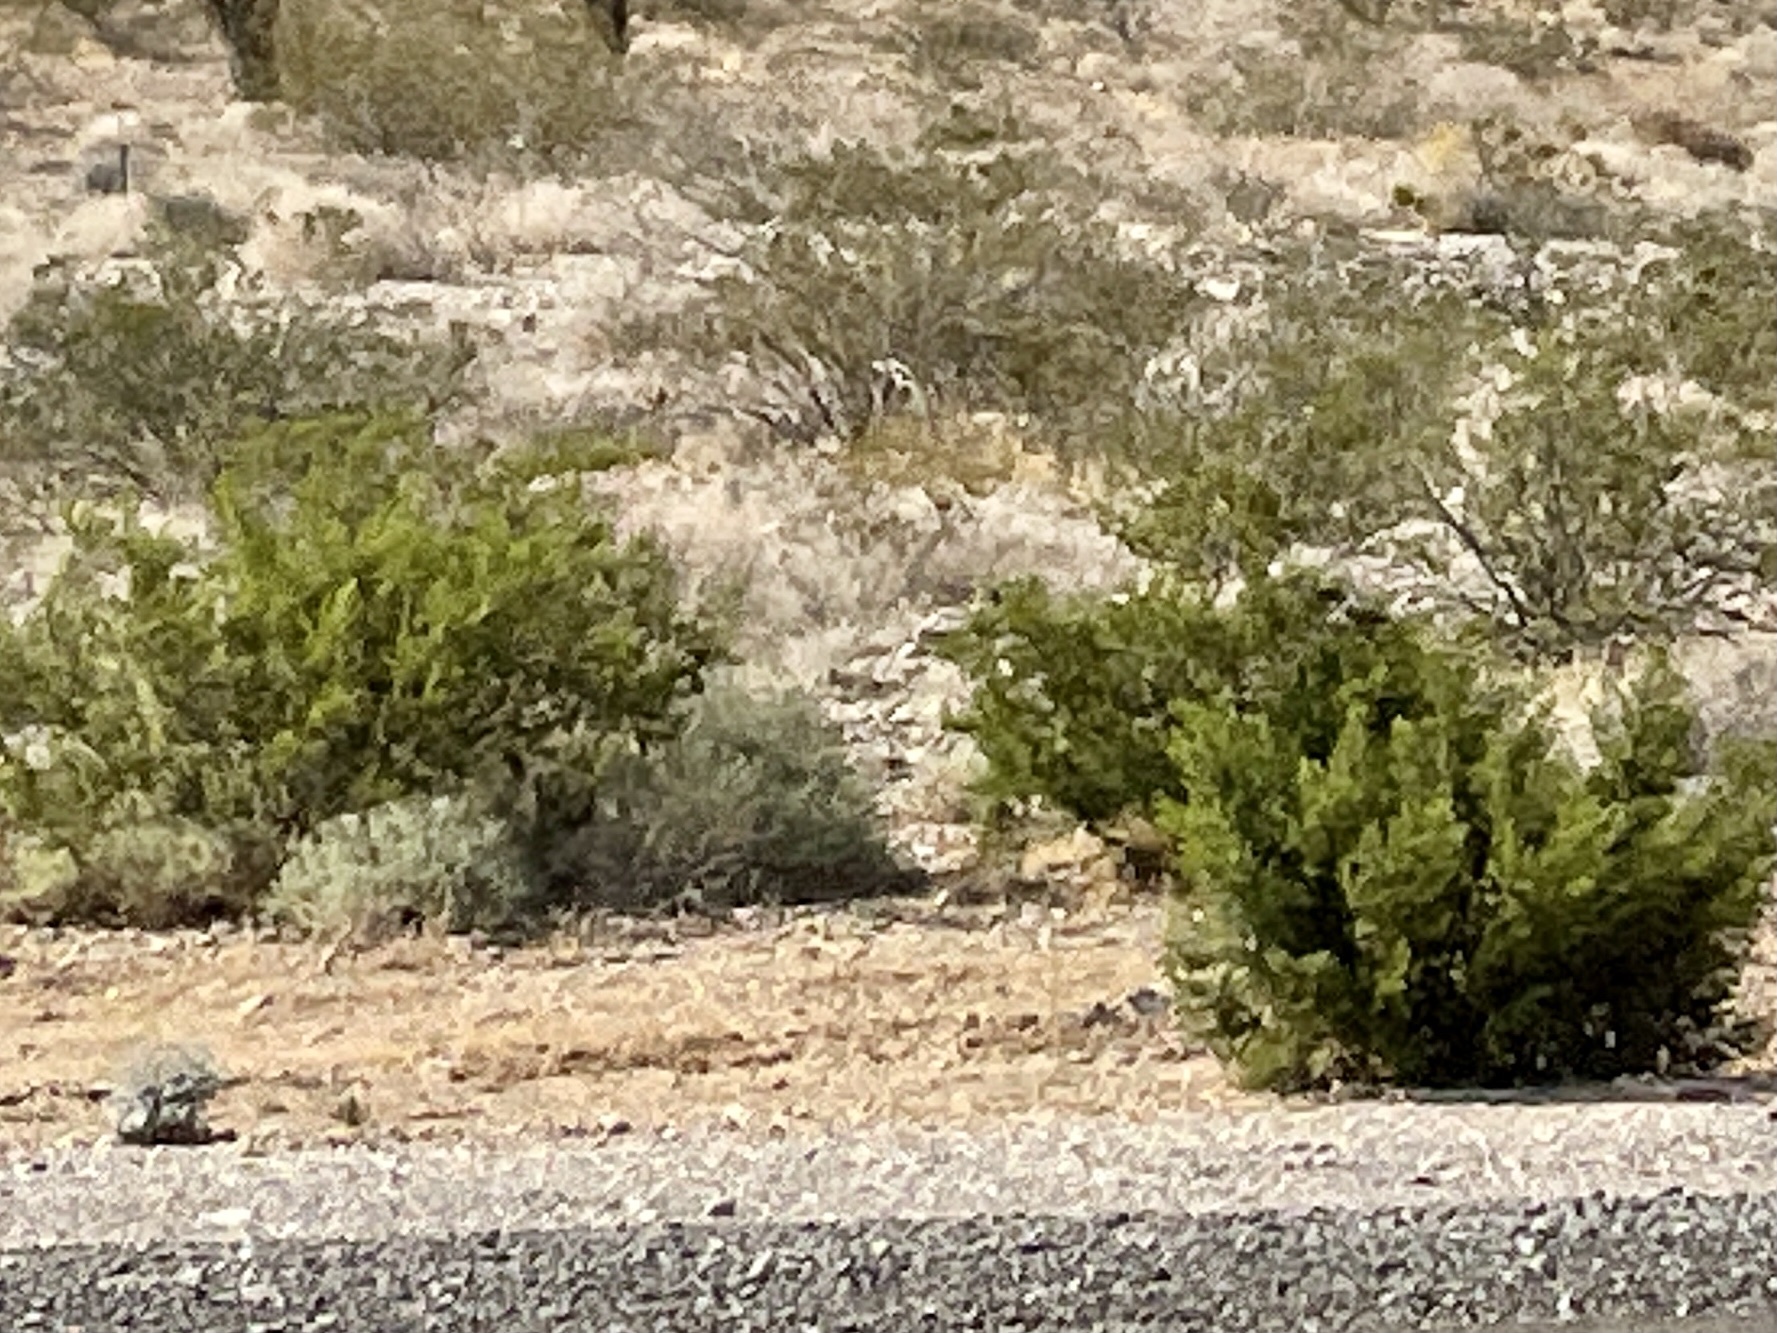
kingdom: Plantae
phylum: Tracheophyta
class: Magnoliopsida
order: Zygophyllales
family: Zygophyllaceae
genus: Larrea
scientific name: Larrea tridentata
